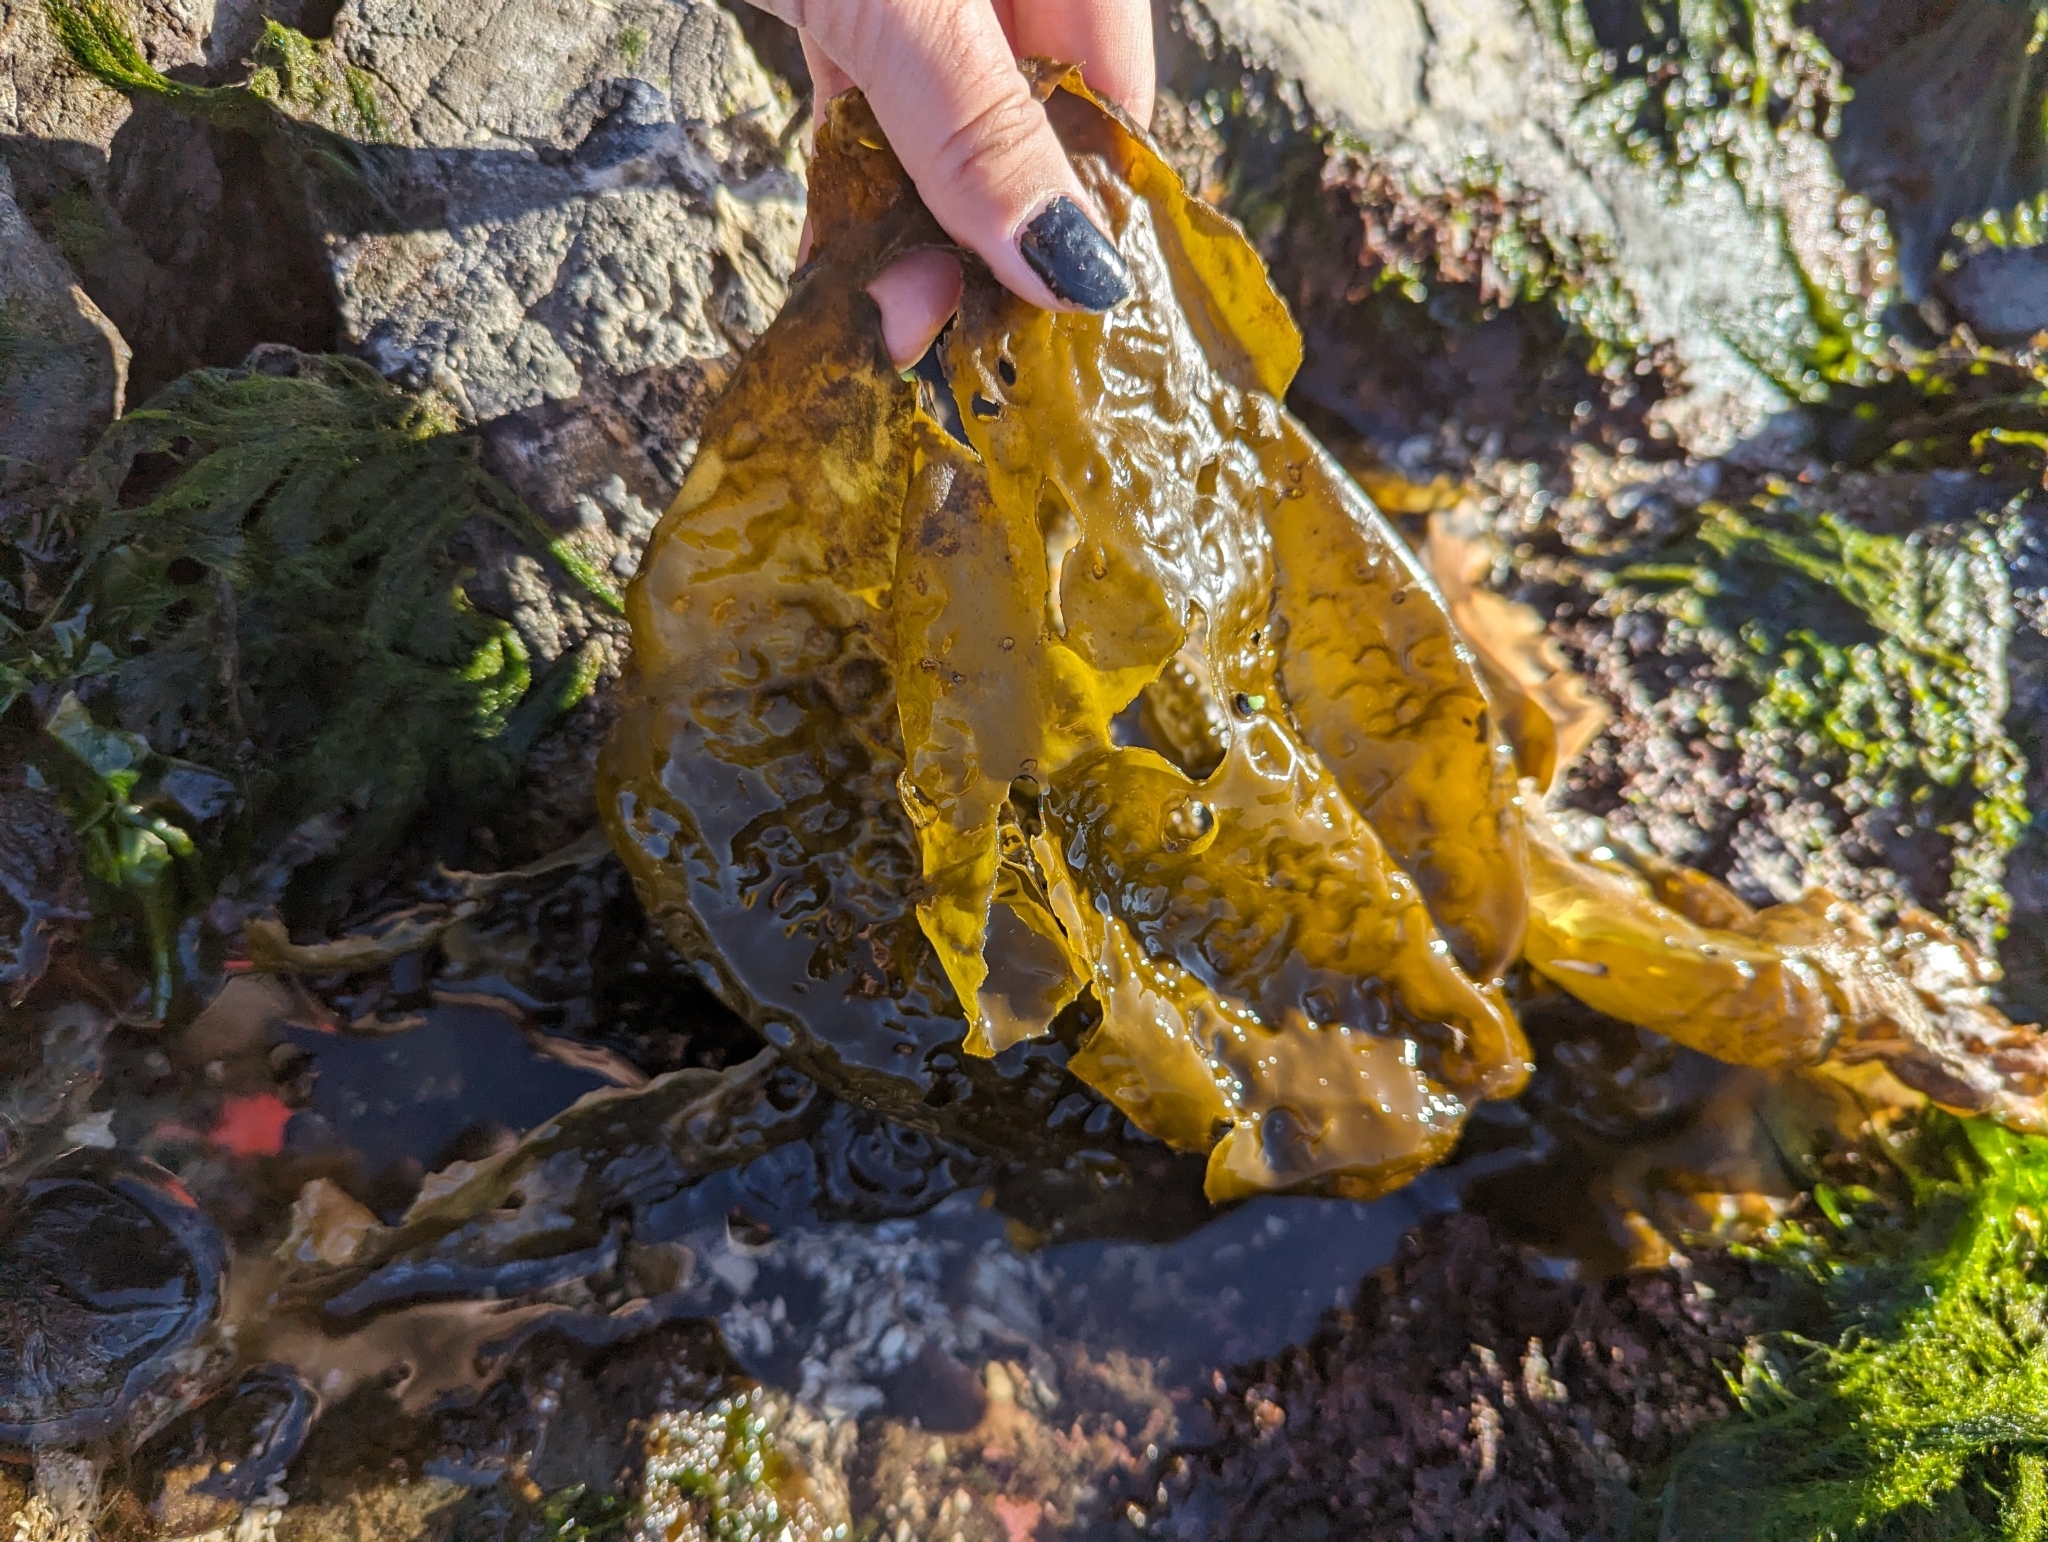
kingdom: Chromista
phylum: Ochrophyta
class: Phaeophyceae
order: Laminariales
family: Laminariaceae
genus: Hedophyllum
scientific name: Hedophyllum sessile
